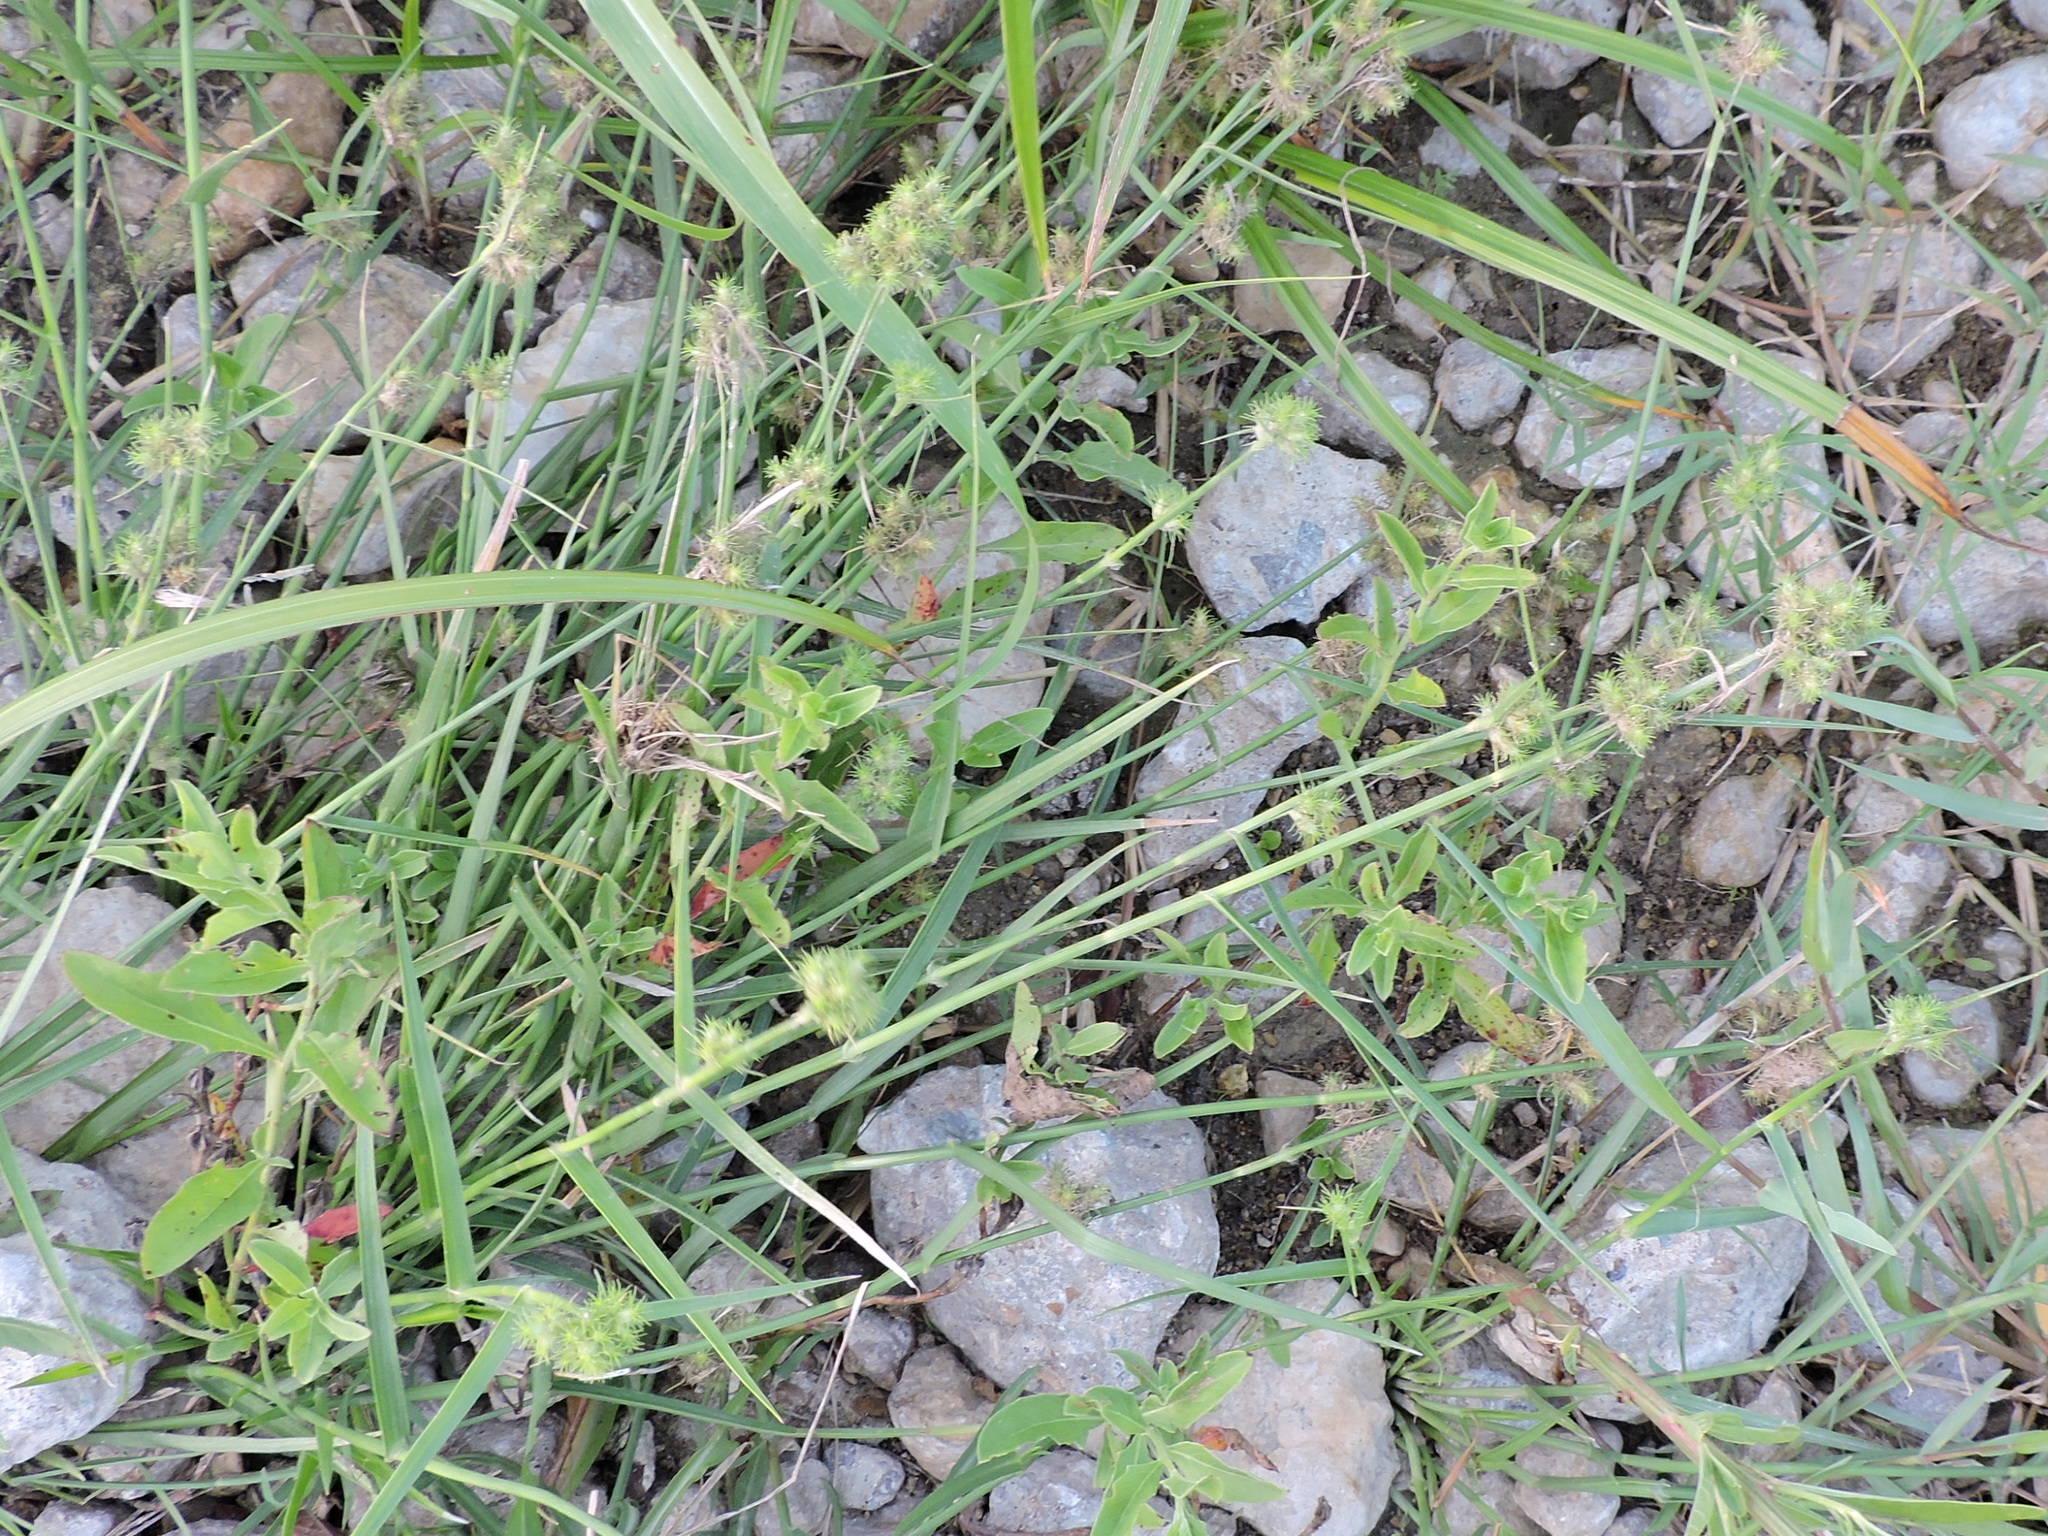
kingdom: Plantae
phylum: Tracheophyta
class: Liliopsida
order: Poales
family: Cyperaceae
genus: Fuirena
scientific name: Fuirena simplex
